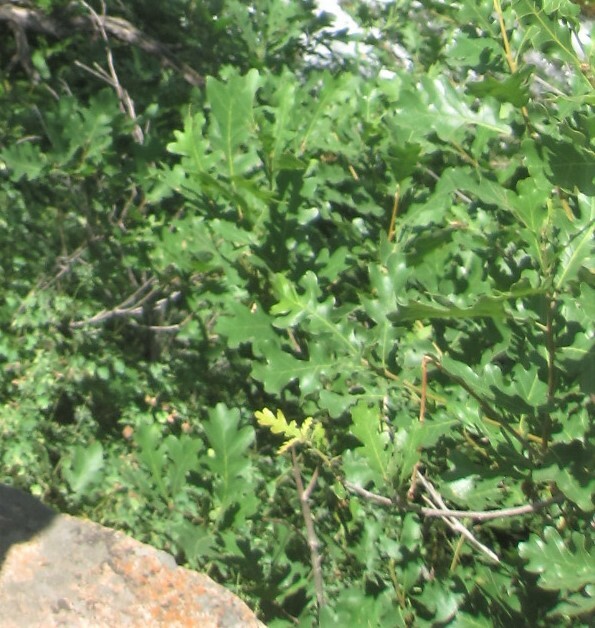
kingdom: Plantae
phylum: Tracheophyta
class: Magnoliopsida
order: Fagales
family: Fagaceae
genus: Quercus
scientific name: Quercus gambelii
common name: Gambel oak
